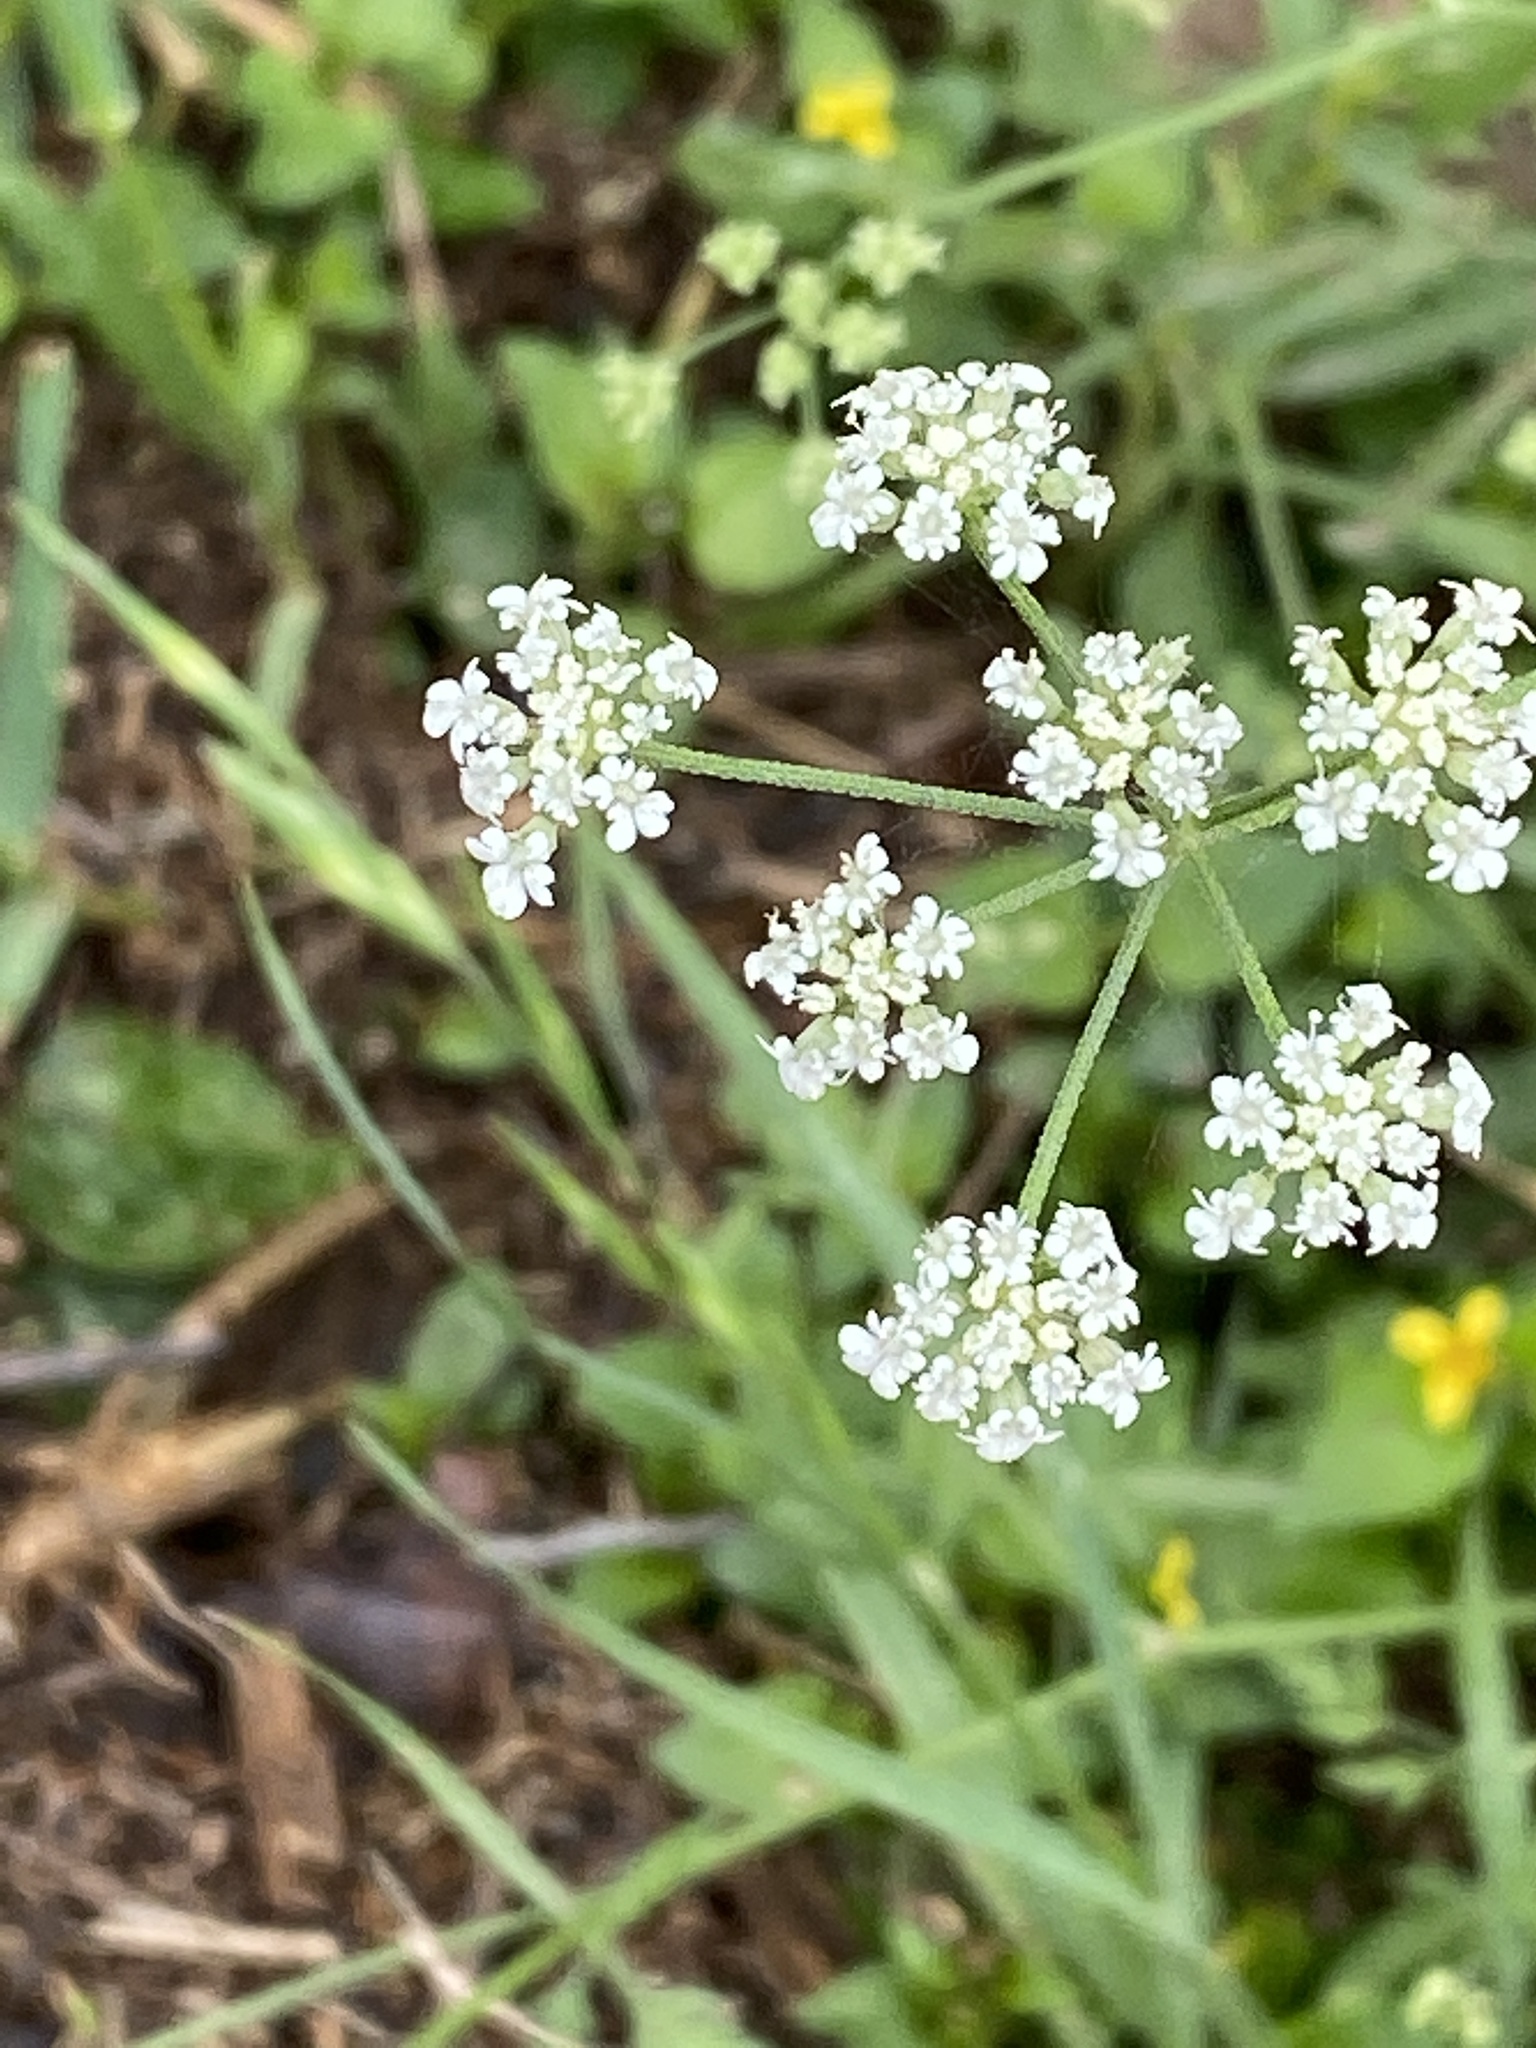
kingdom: Plantae
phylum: Tracheophyta
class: Magnoliopsida
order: Apiales
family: Apiaceae
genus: Torilis
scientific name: Torilis arvensis
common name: Spreading hedge-parsley
